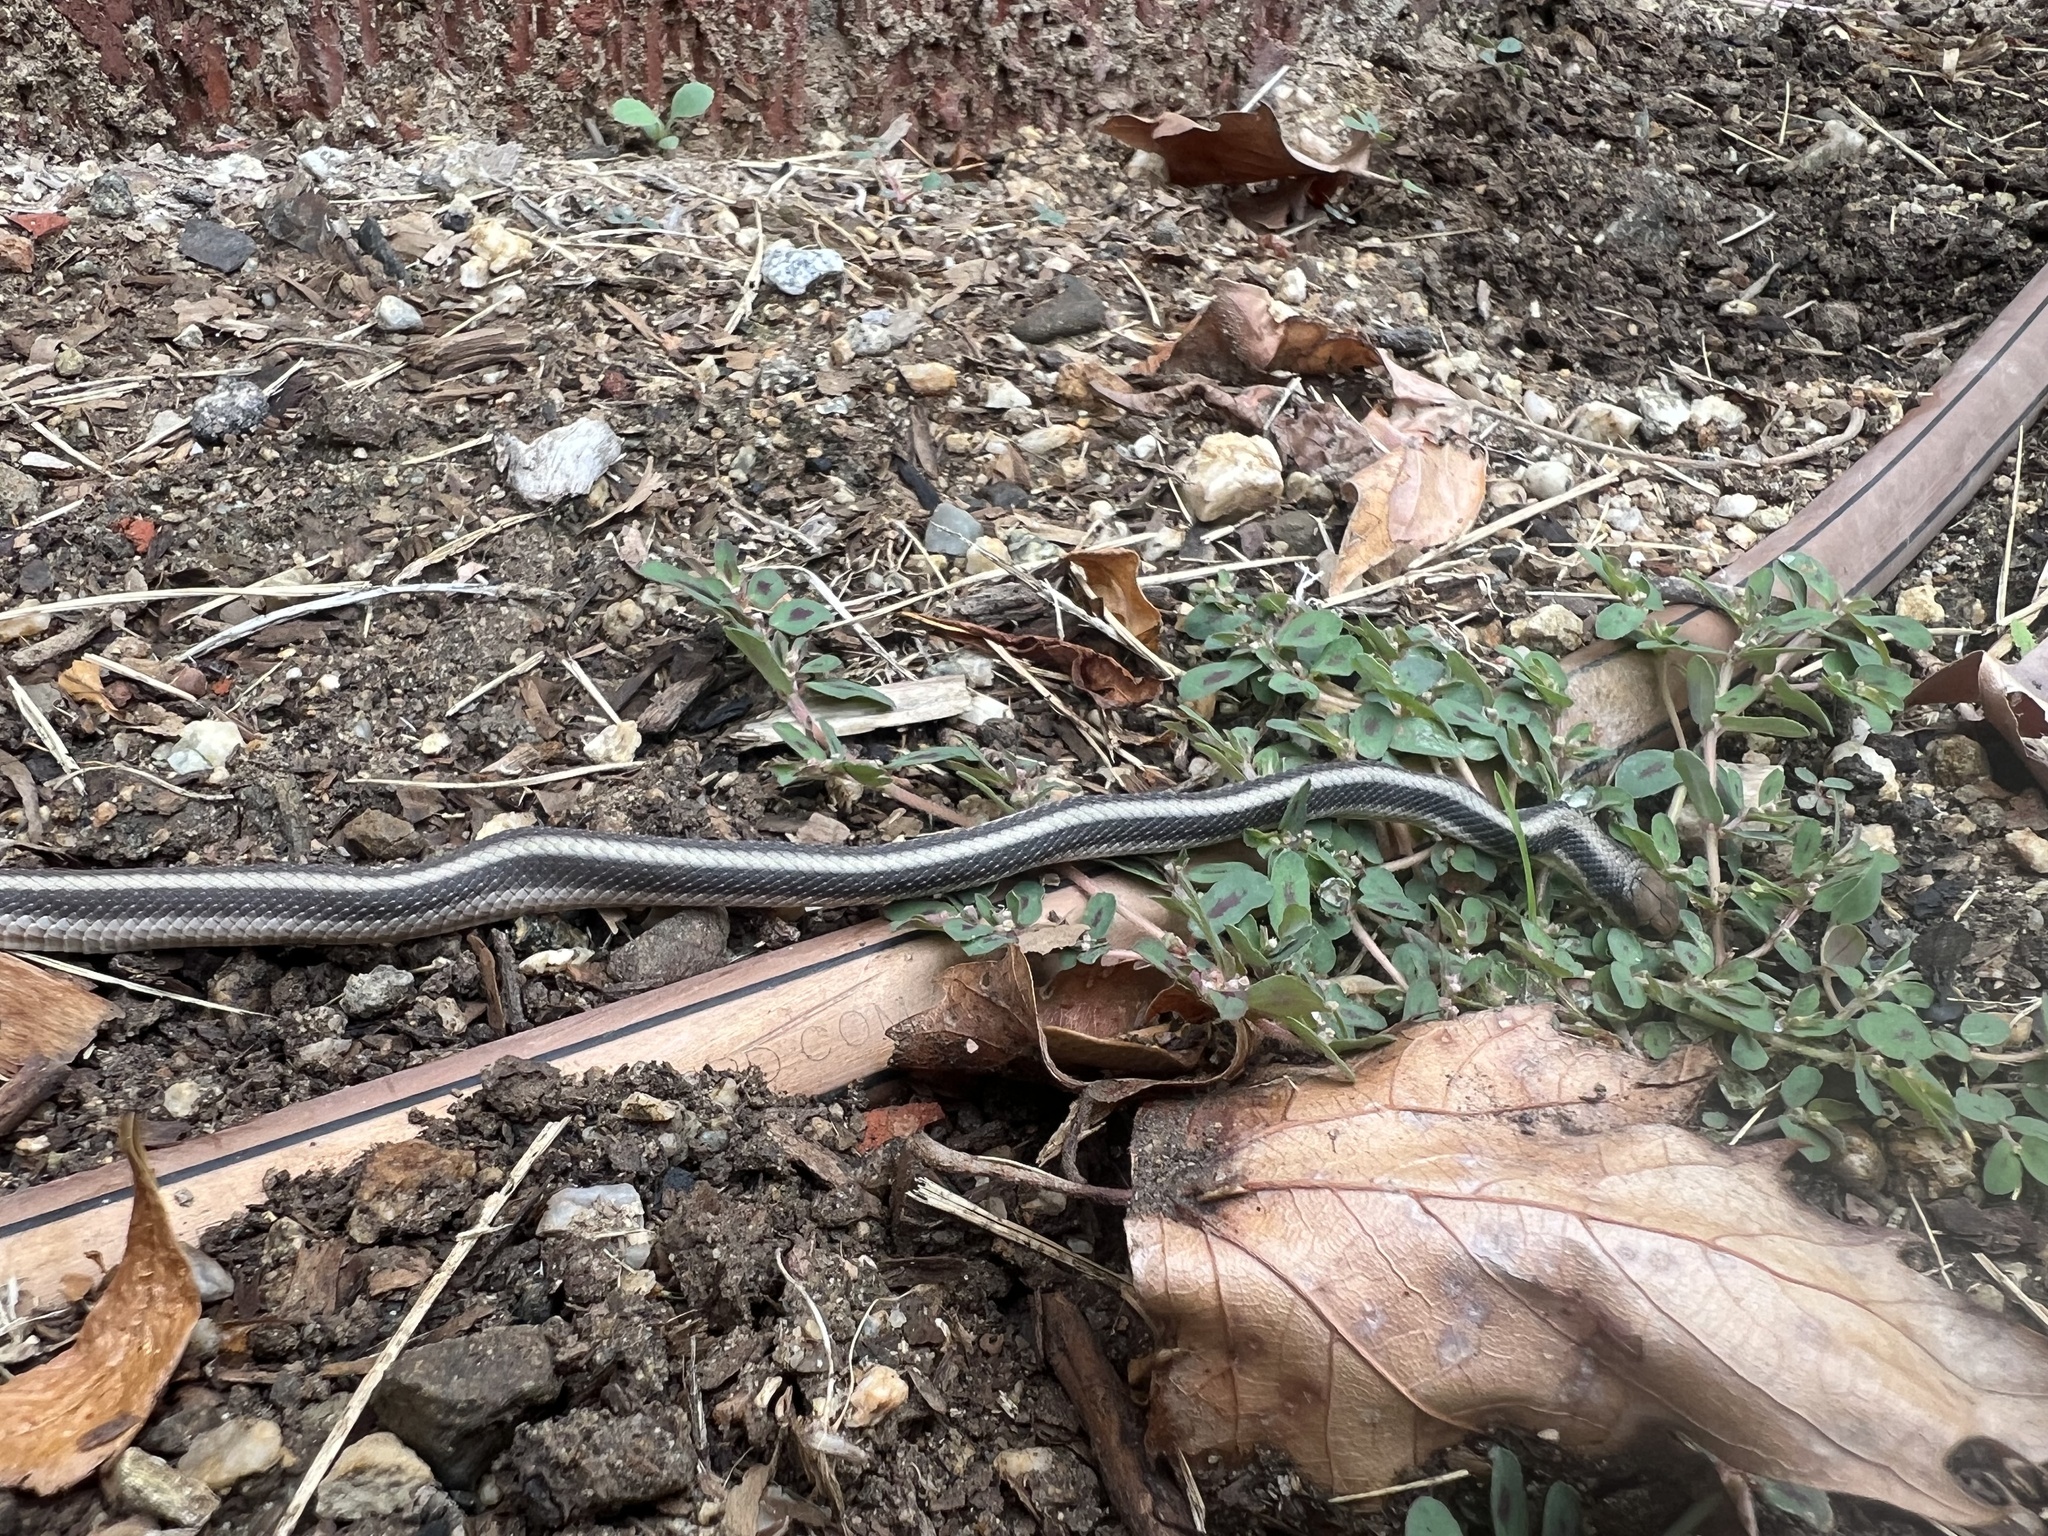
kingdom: Animalia
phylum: Chordata
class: Squamata
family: Colubridae
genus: Salvadora
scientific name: Salvadora hexalepis
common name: Western patchnose snake
